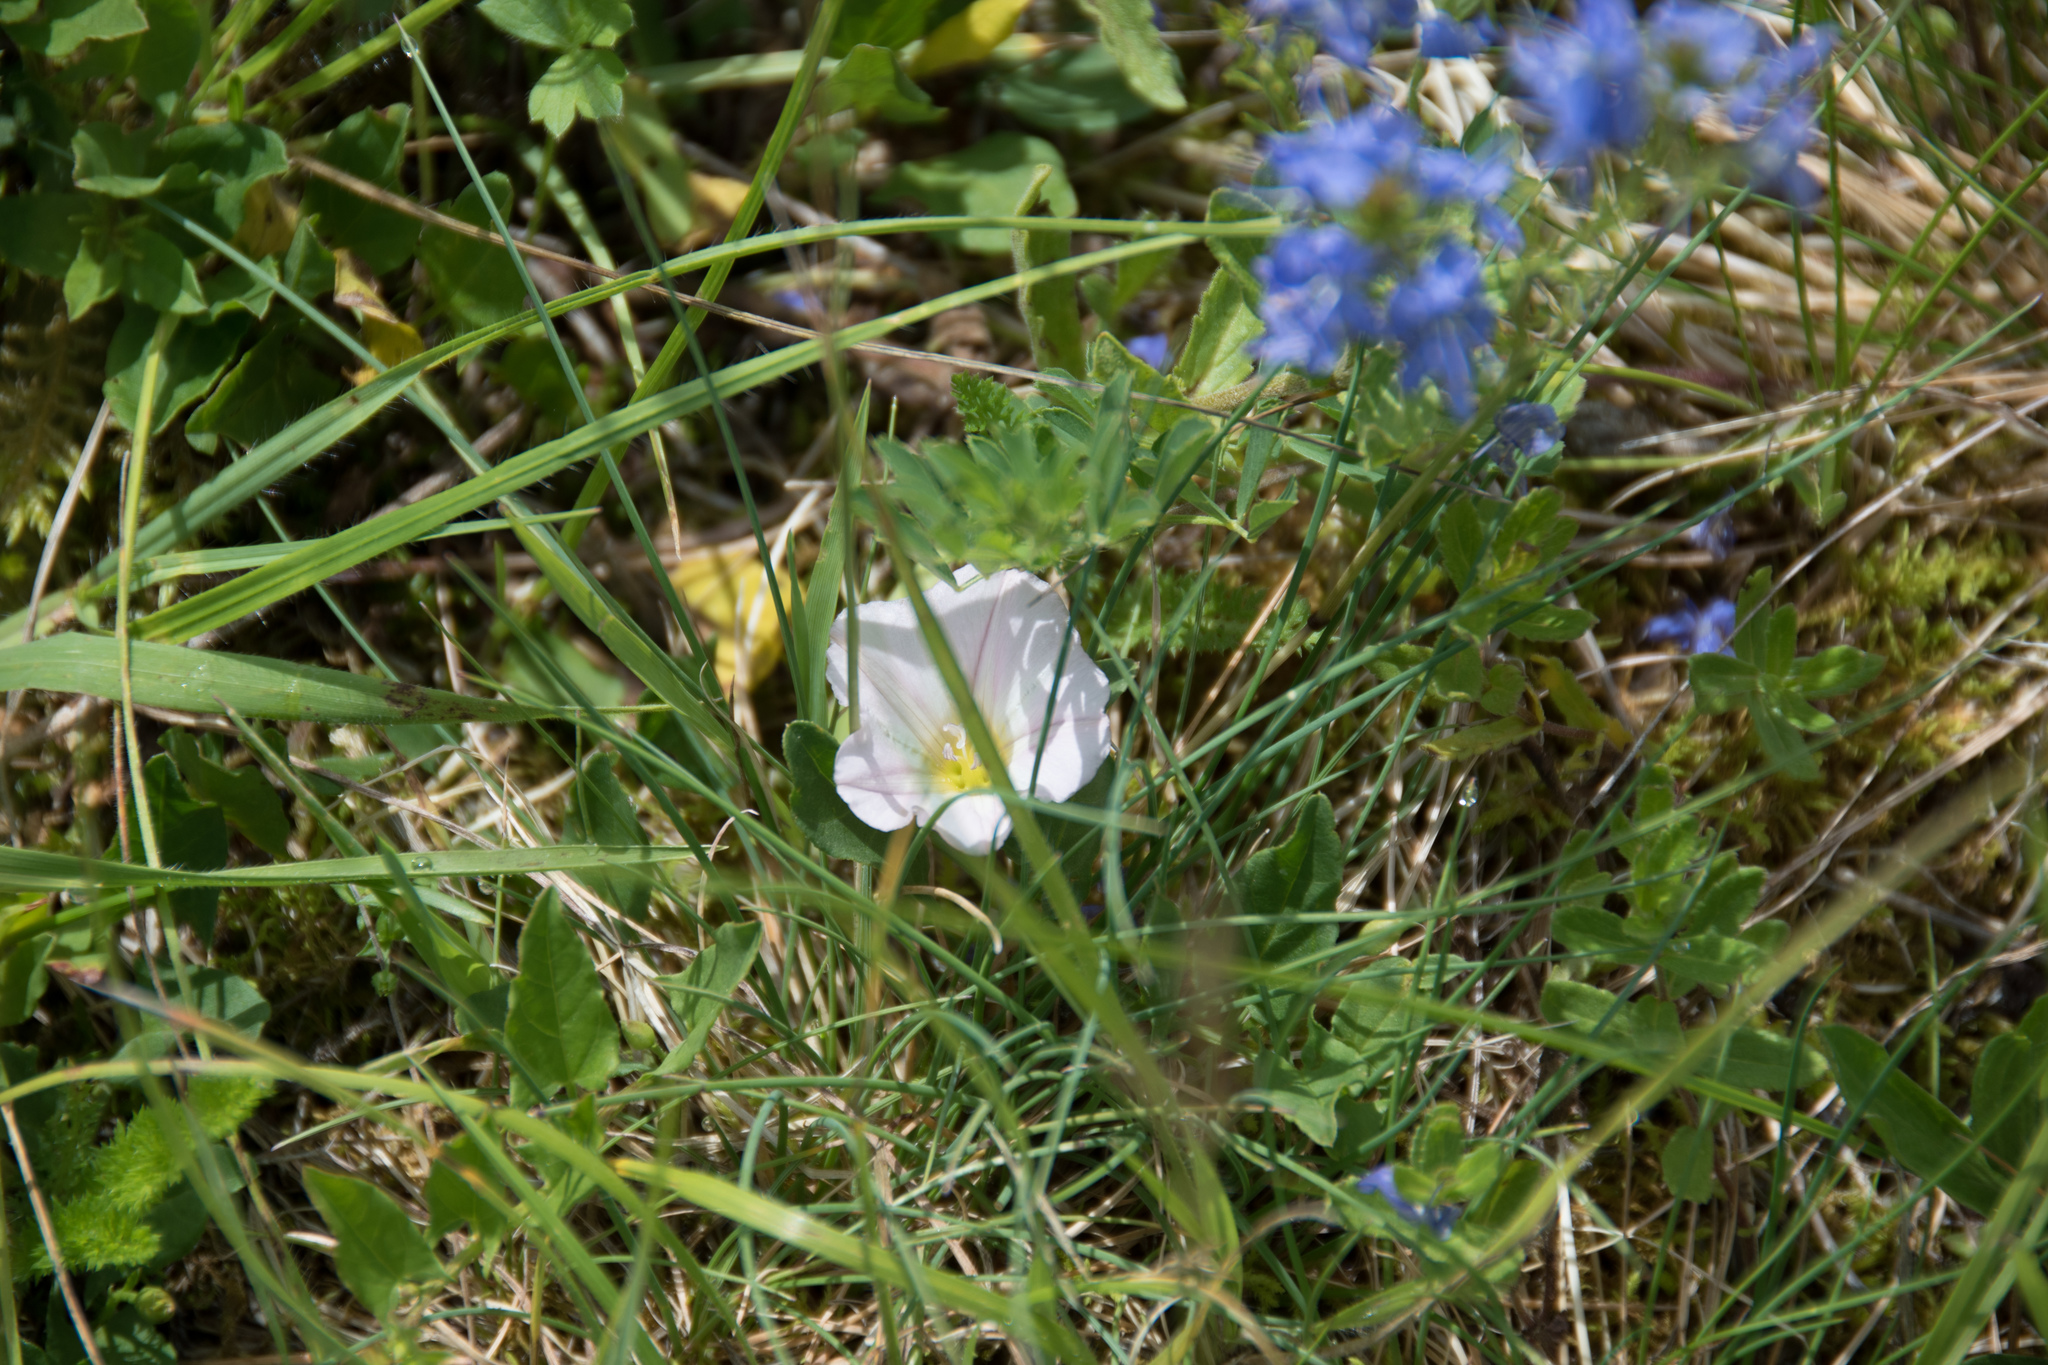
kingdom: Plantae
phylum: Tracheophyta
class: Magnoliopsida
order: Solanales
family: Convolvulaceae
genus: Convolvulus
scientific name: Convolvulus arvensis
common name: Field bindweed
